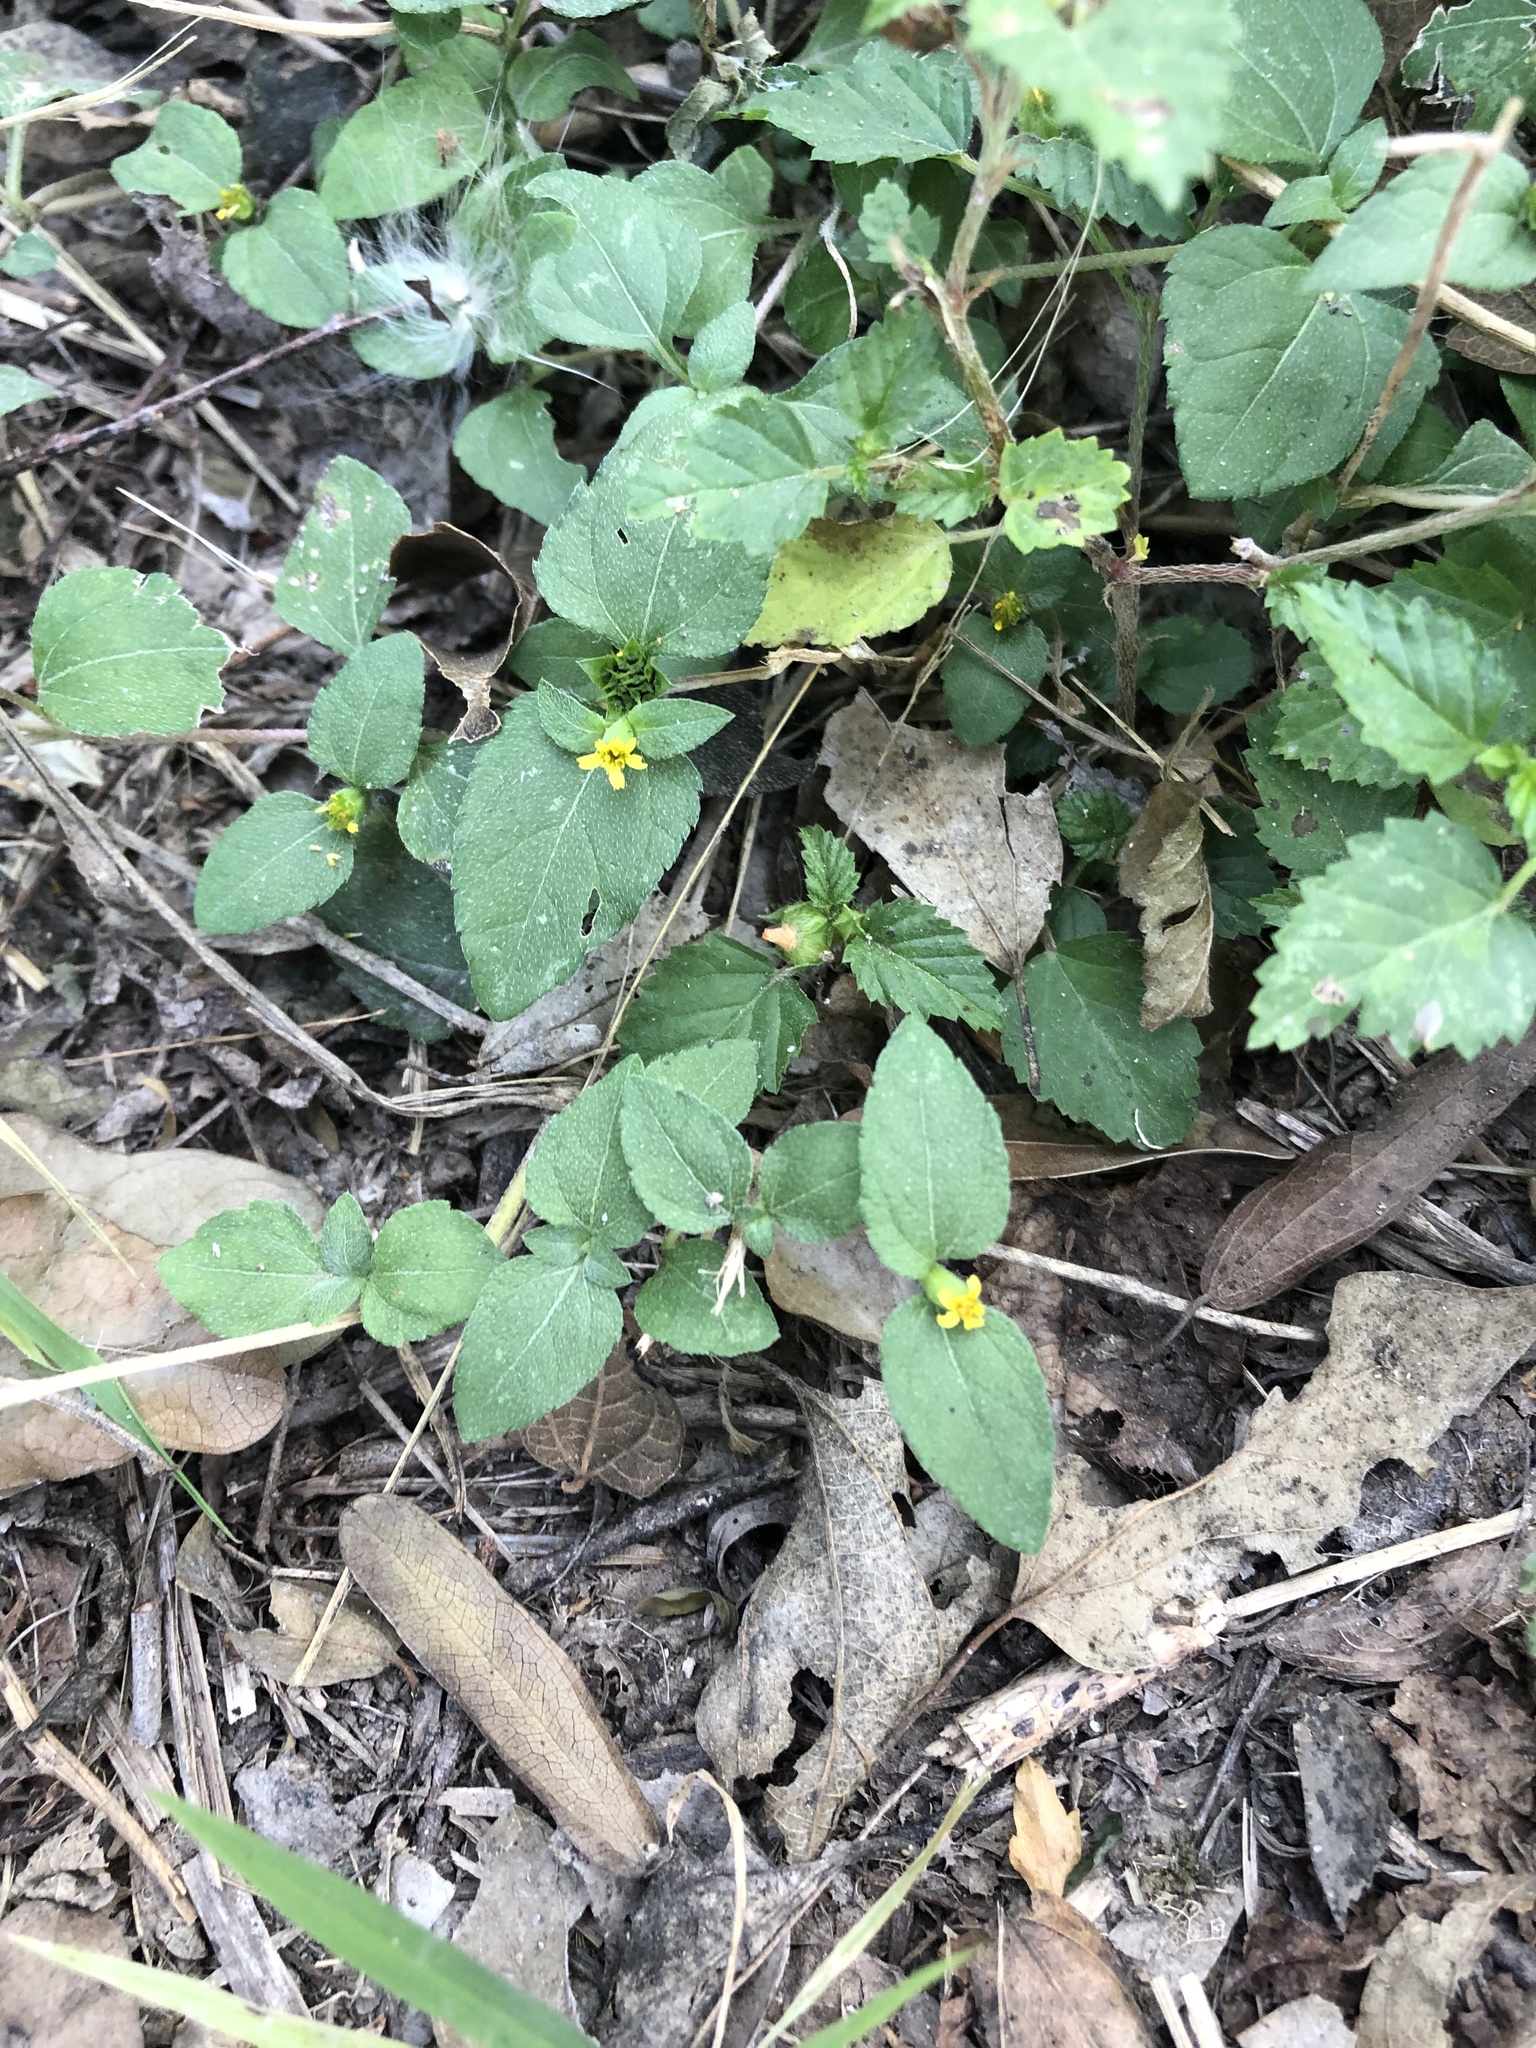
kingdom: Plantae
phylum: Tracheophyta
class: Magnoliopsida
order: Asterales
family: Asteraceae
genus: Calyptocarpus
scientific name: Calyptocarpus vialis
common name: Straggler daisy
